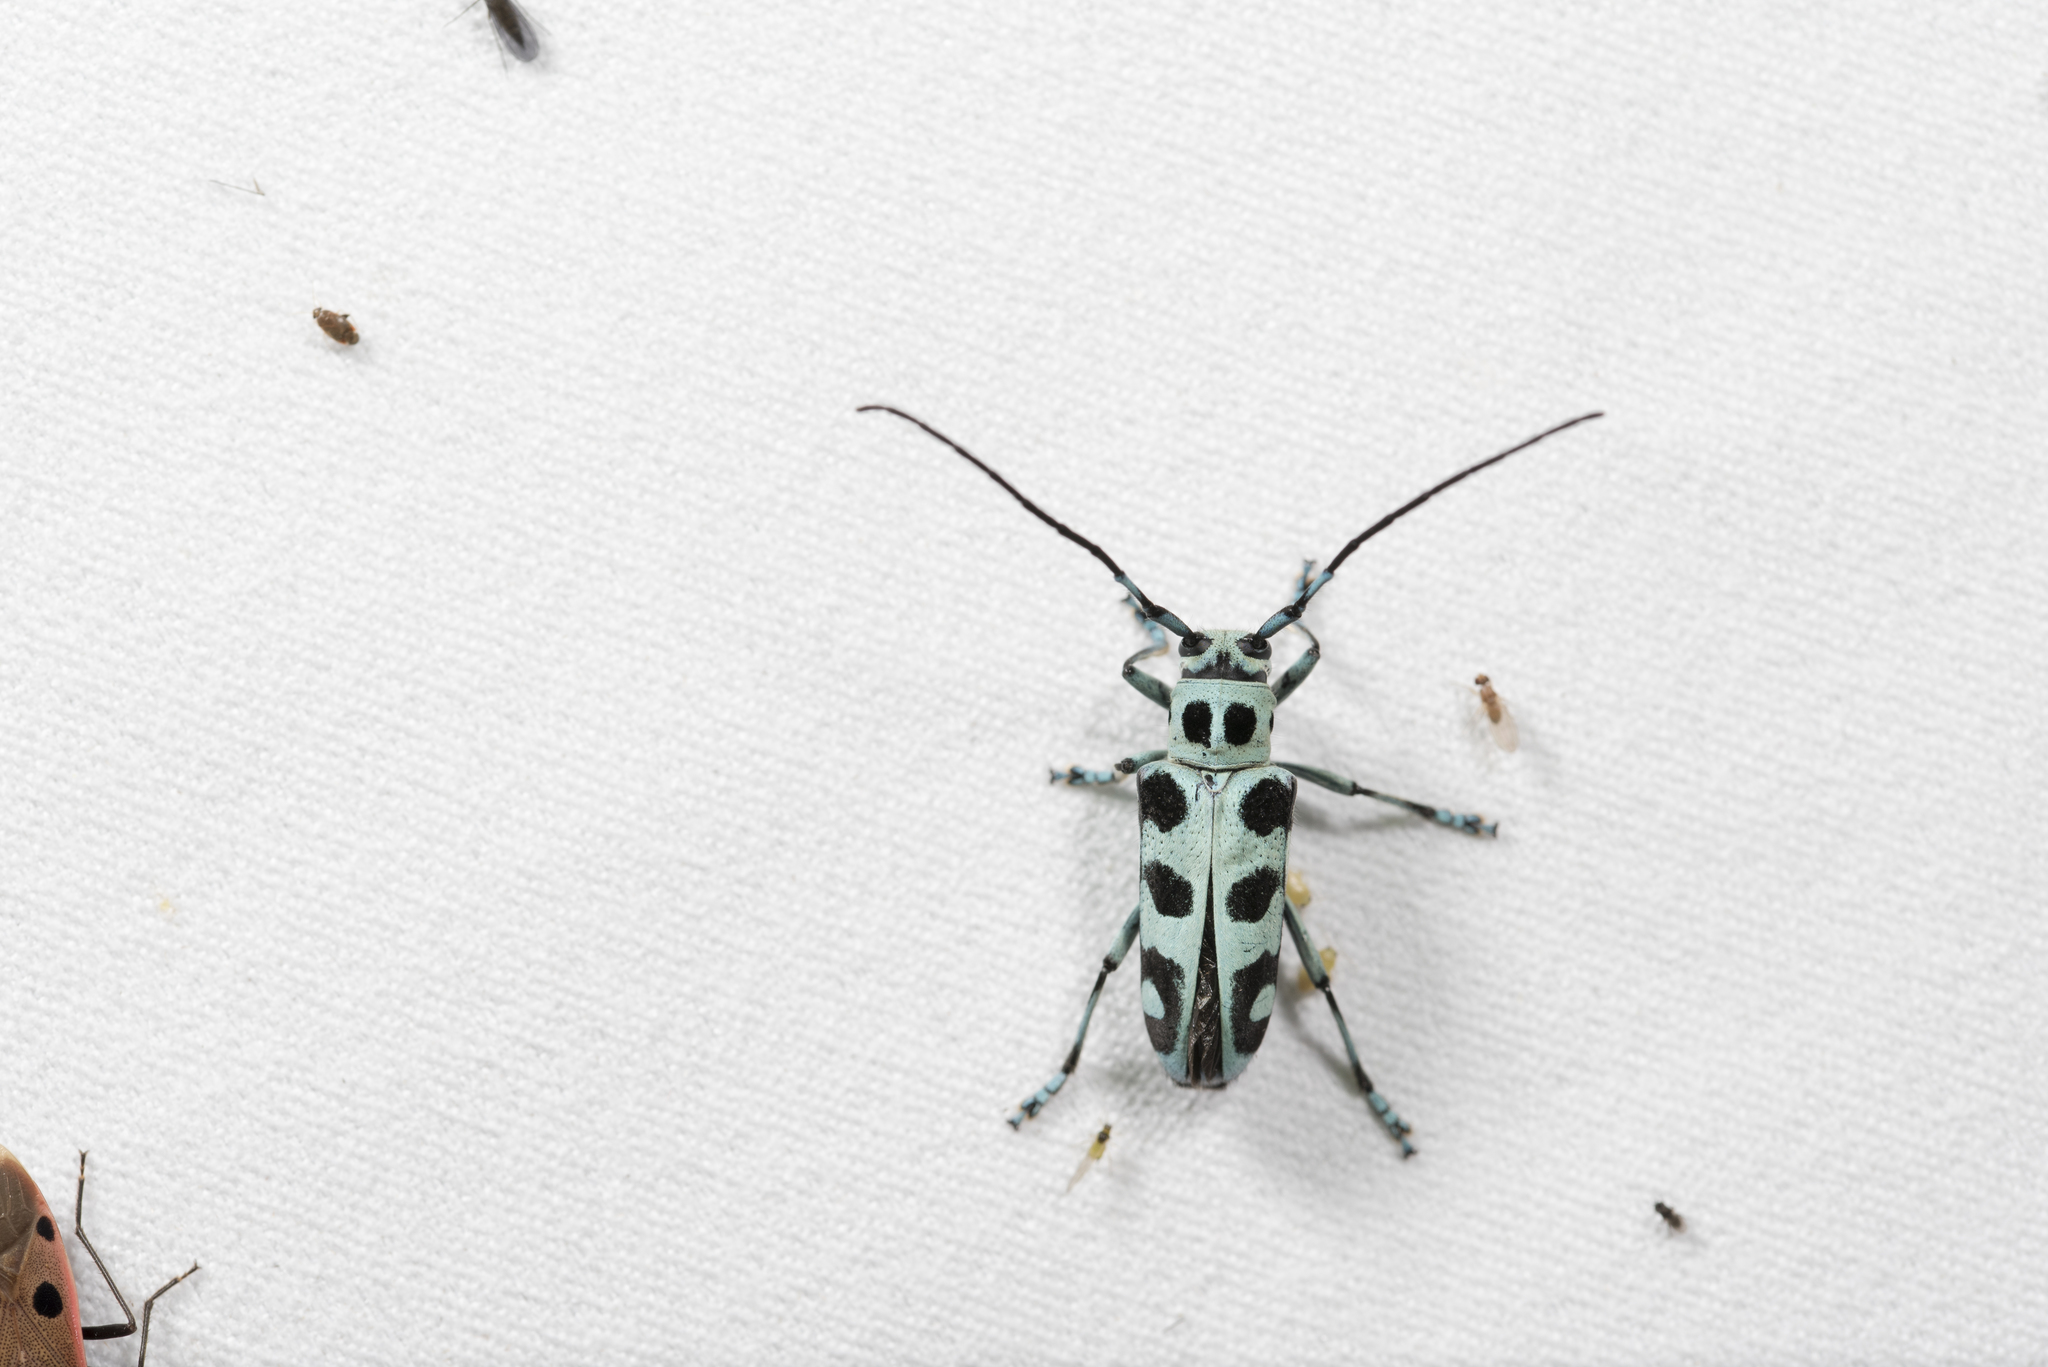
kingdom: Animalia
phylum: Arthropoda
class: Insecta
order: Coleoptera
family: Cerambycidae
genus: Paraglenea
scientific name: Paraglenea swinhoei
